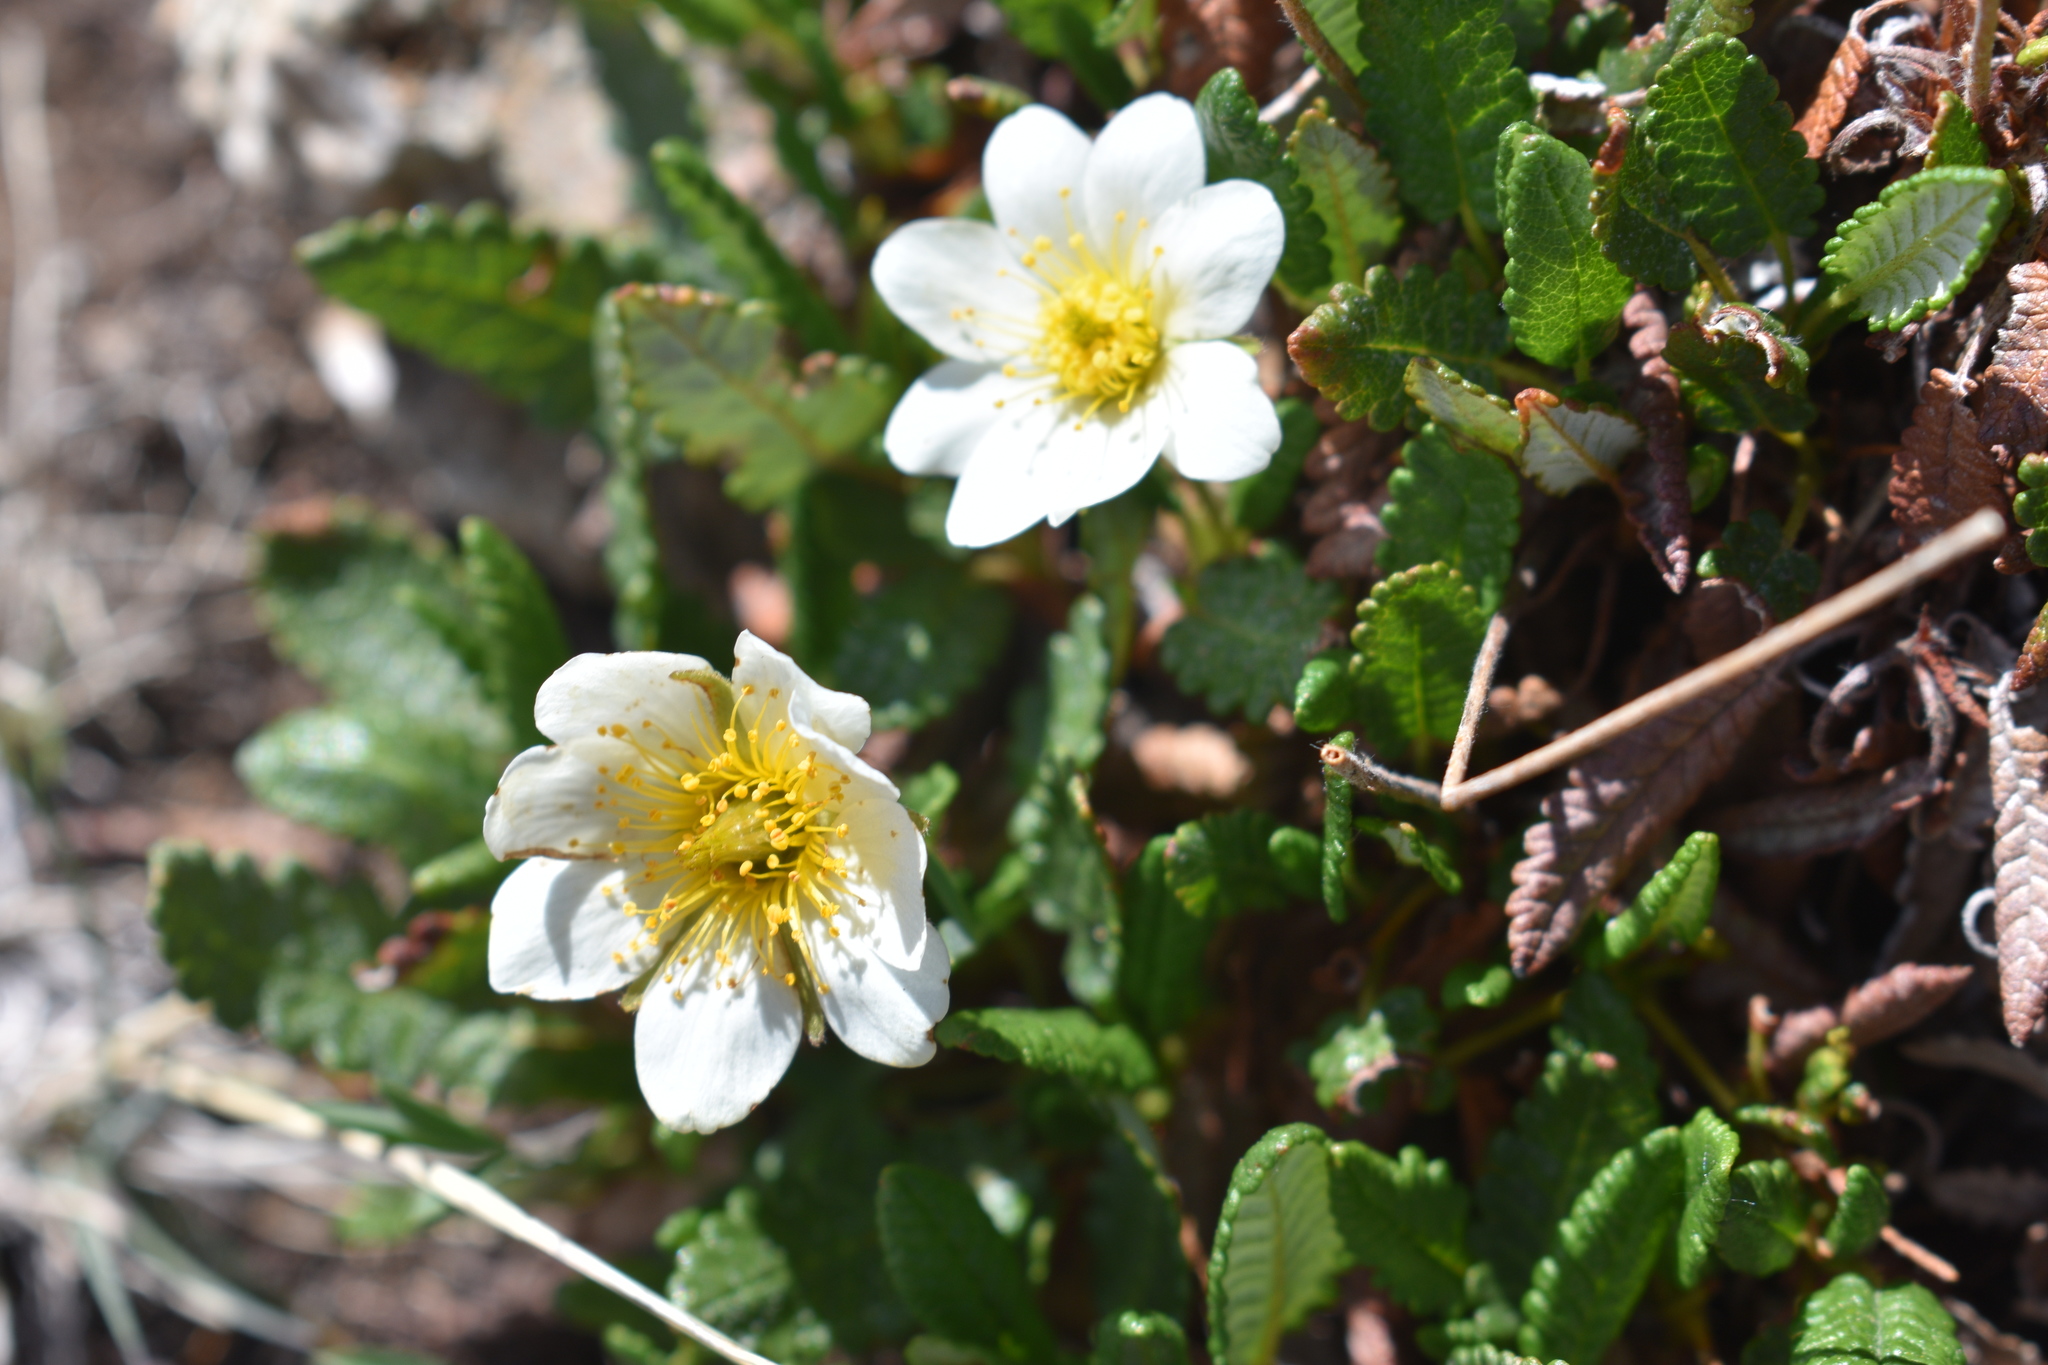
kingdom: Plantae
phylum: Tracheophyta
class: Magnoliopsida
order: Rosales
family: Rosaceae
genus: Dryas
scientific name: Dryas octopetala
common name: Eight-petal mountain-avens
